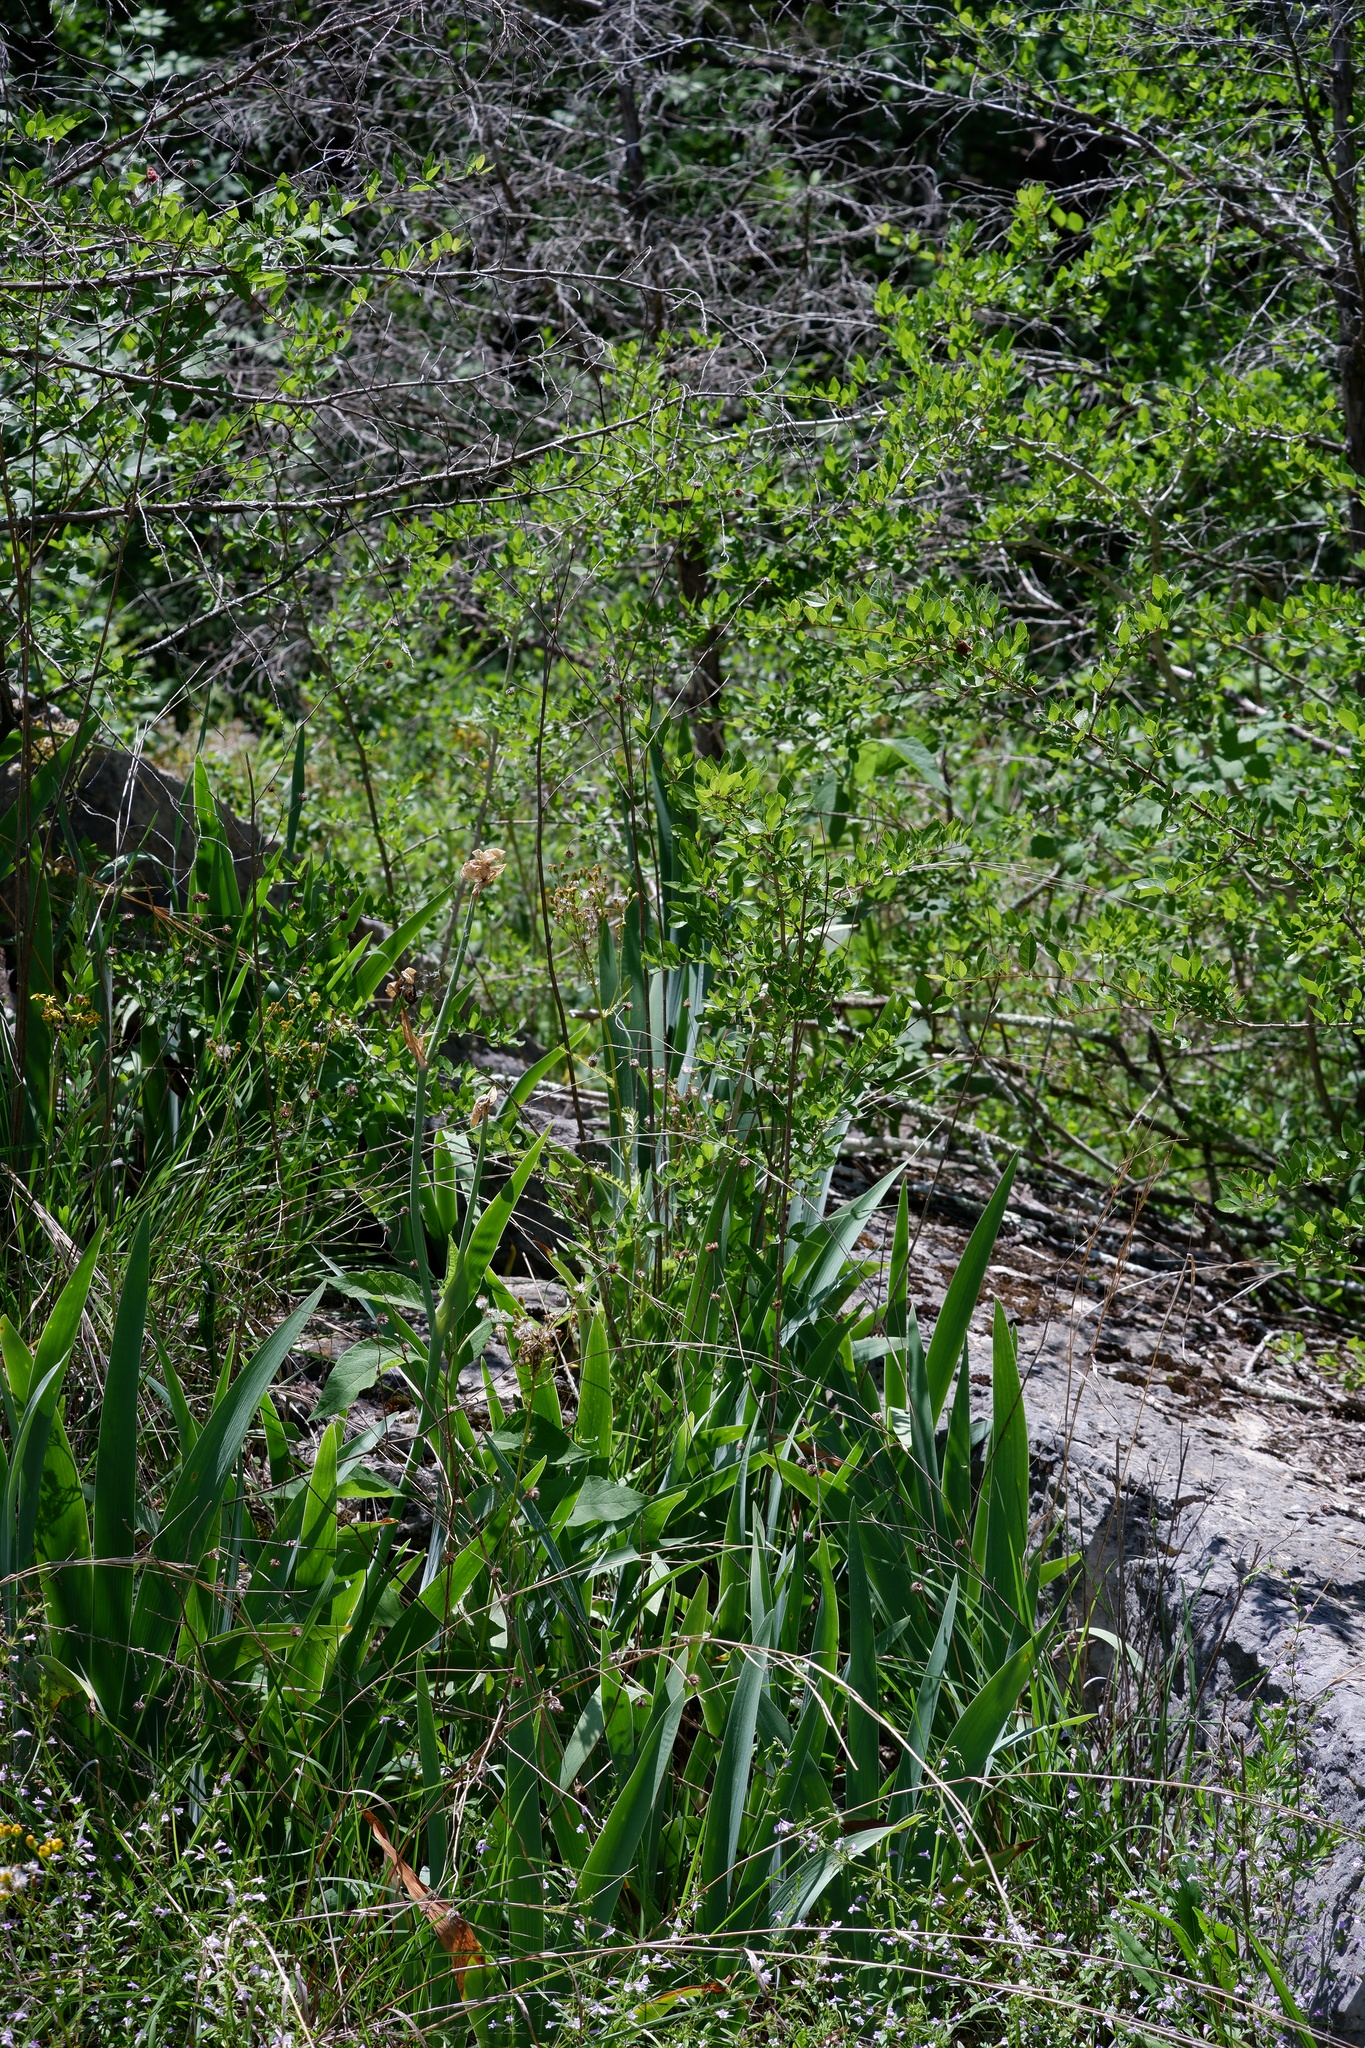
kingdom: Plantae
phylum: Tracheophyta
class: Liliopsida
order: Asparagales
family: Iridaceae
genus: Iris
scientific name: Iris domestica
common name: Belamcanda
